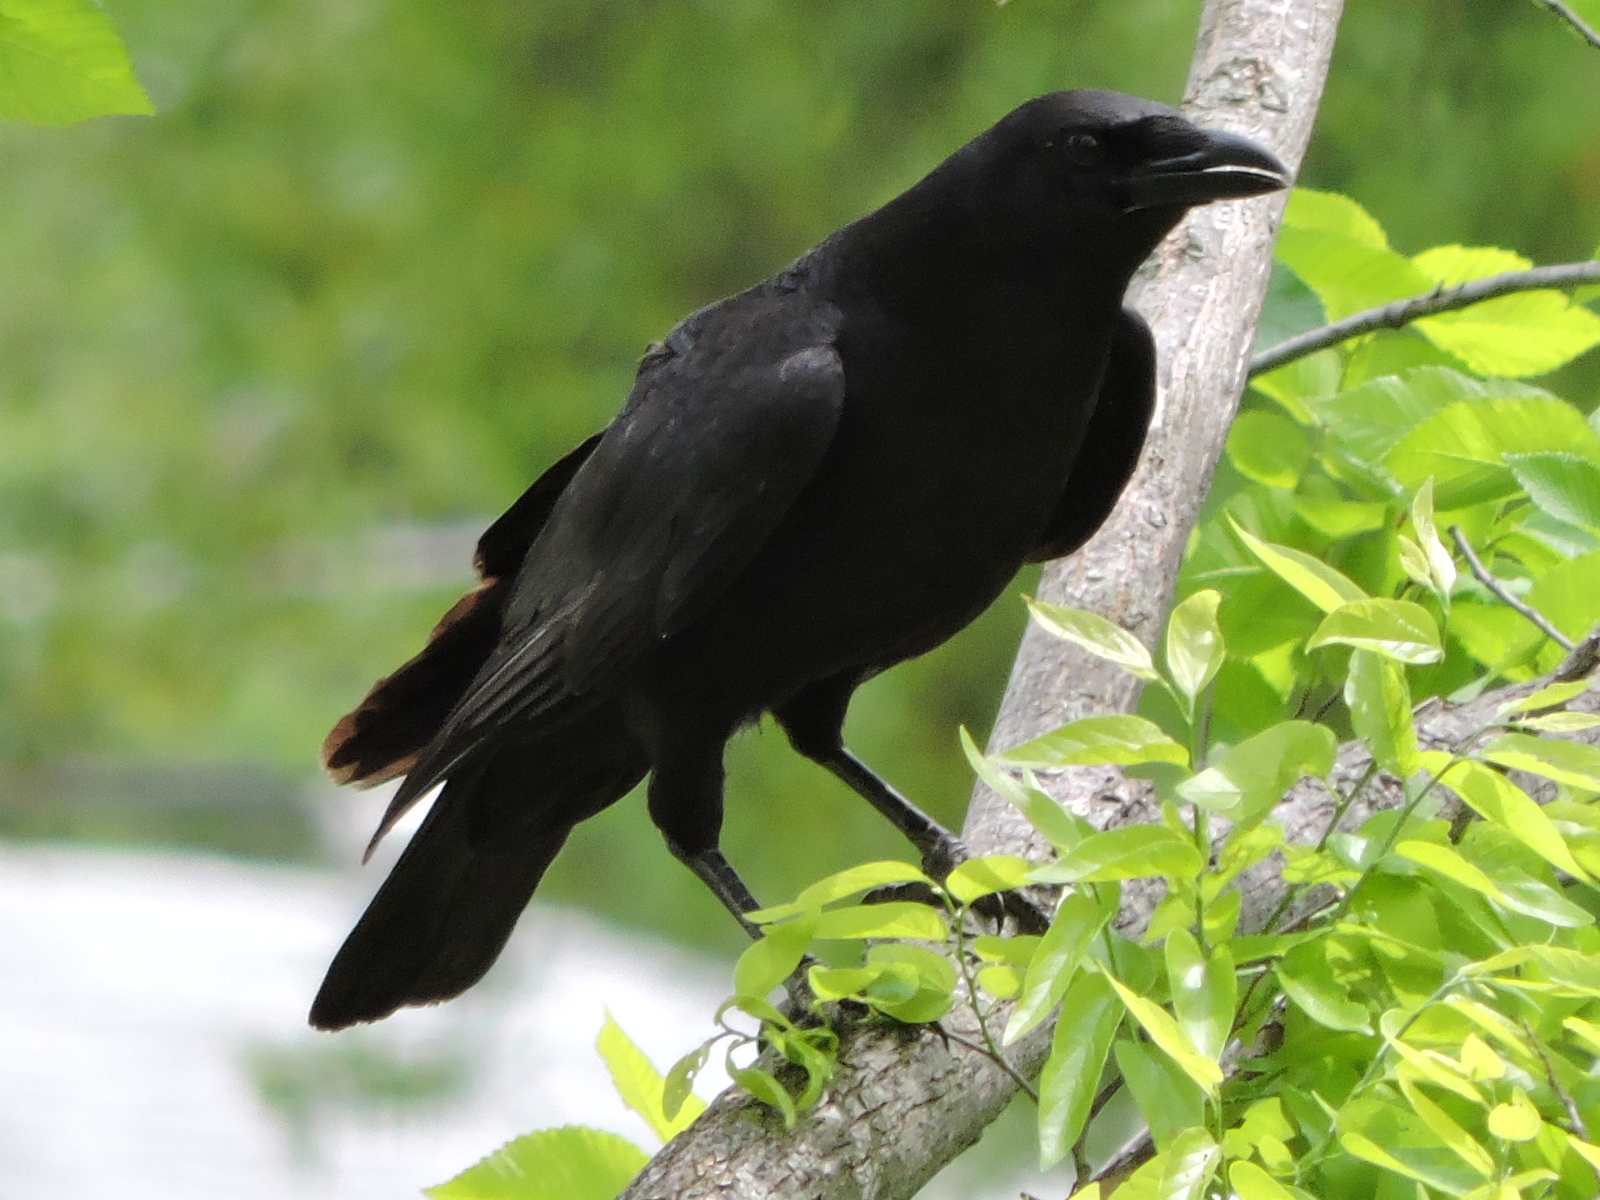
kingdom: Animalia
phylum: Chordata
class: Aves
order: Passeriformes
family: Corvidae
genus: Corvus
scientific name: Corvus brachyrhynchos
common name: American crow
